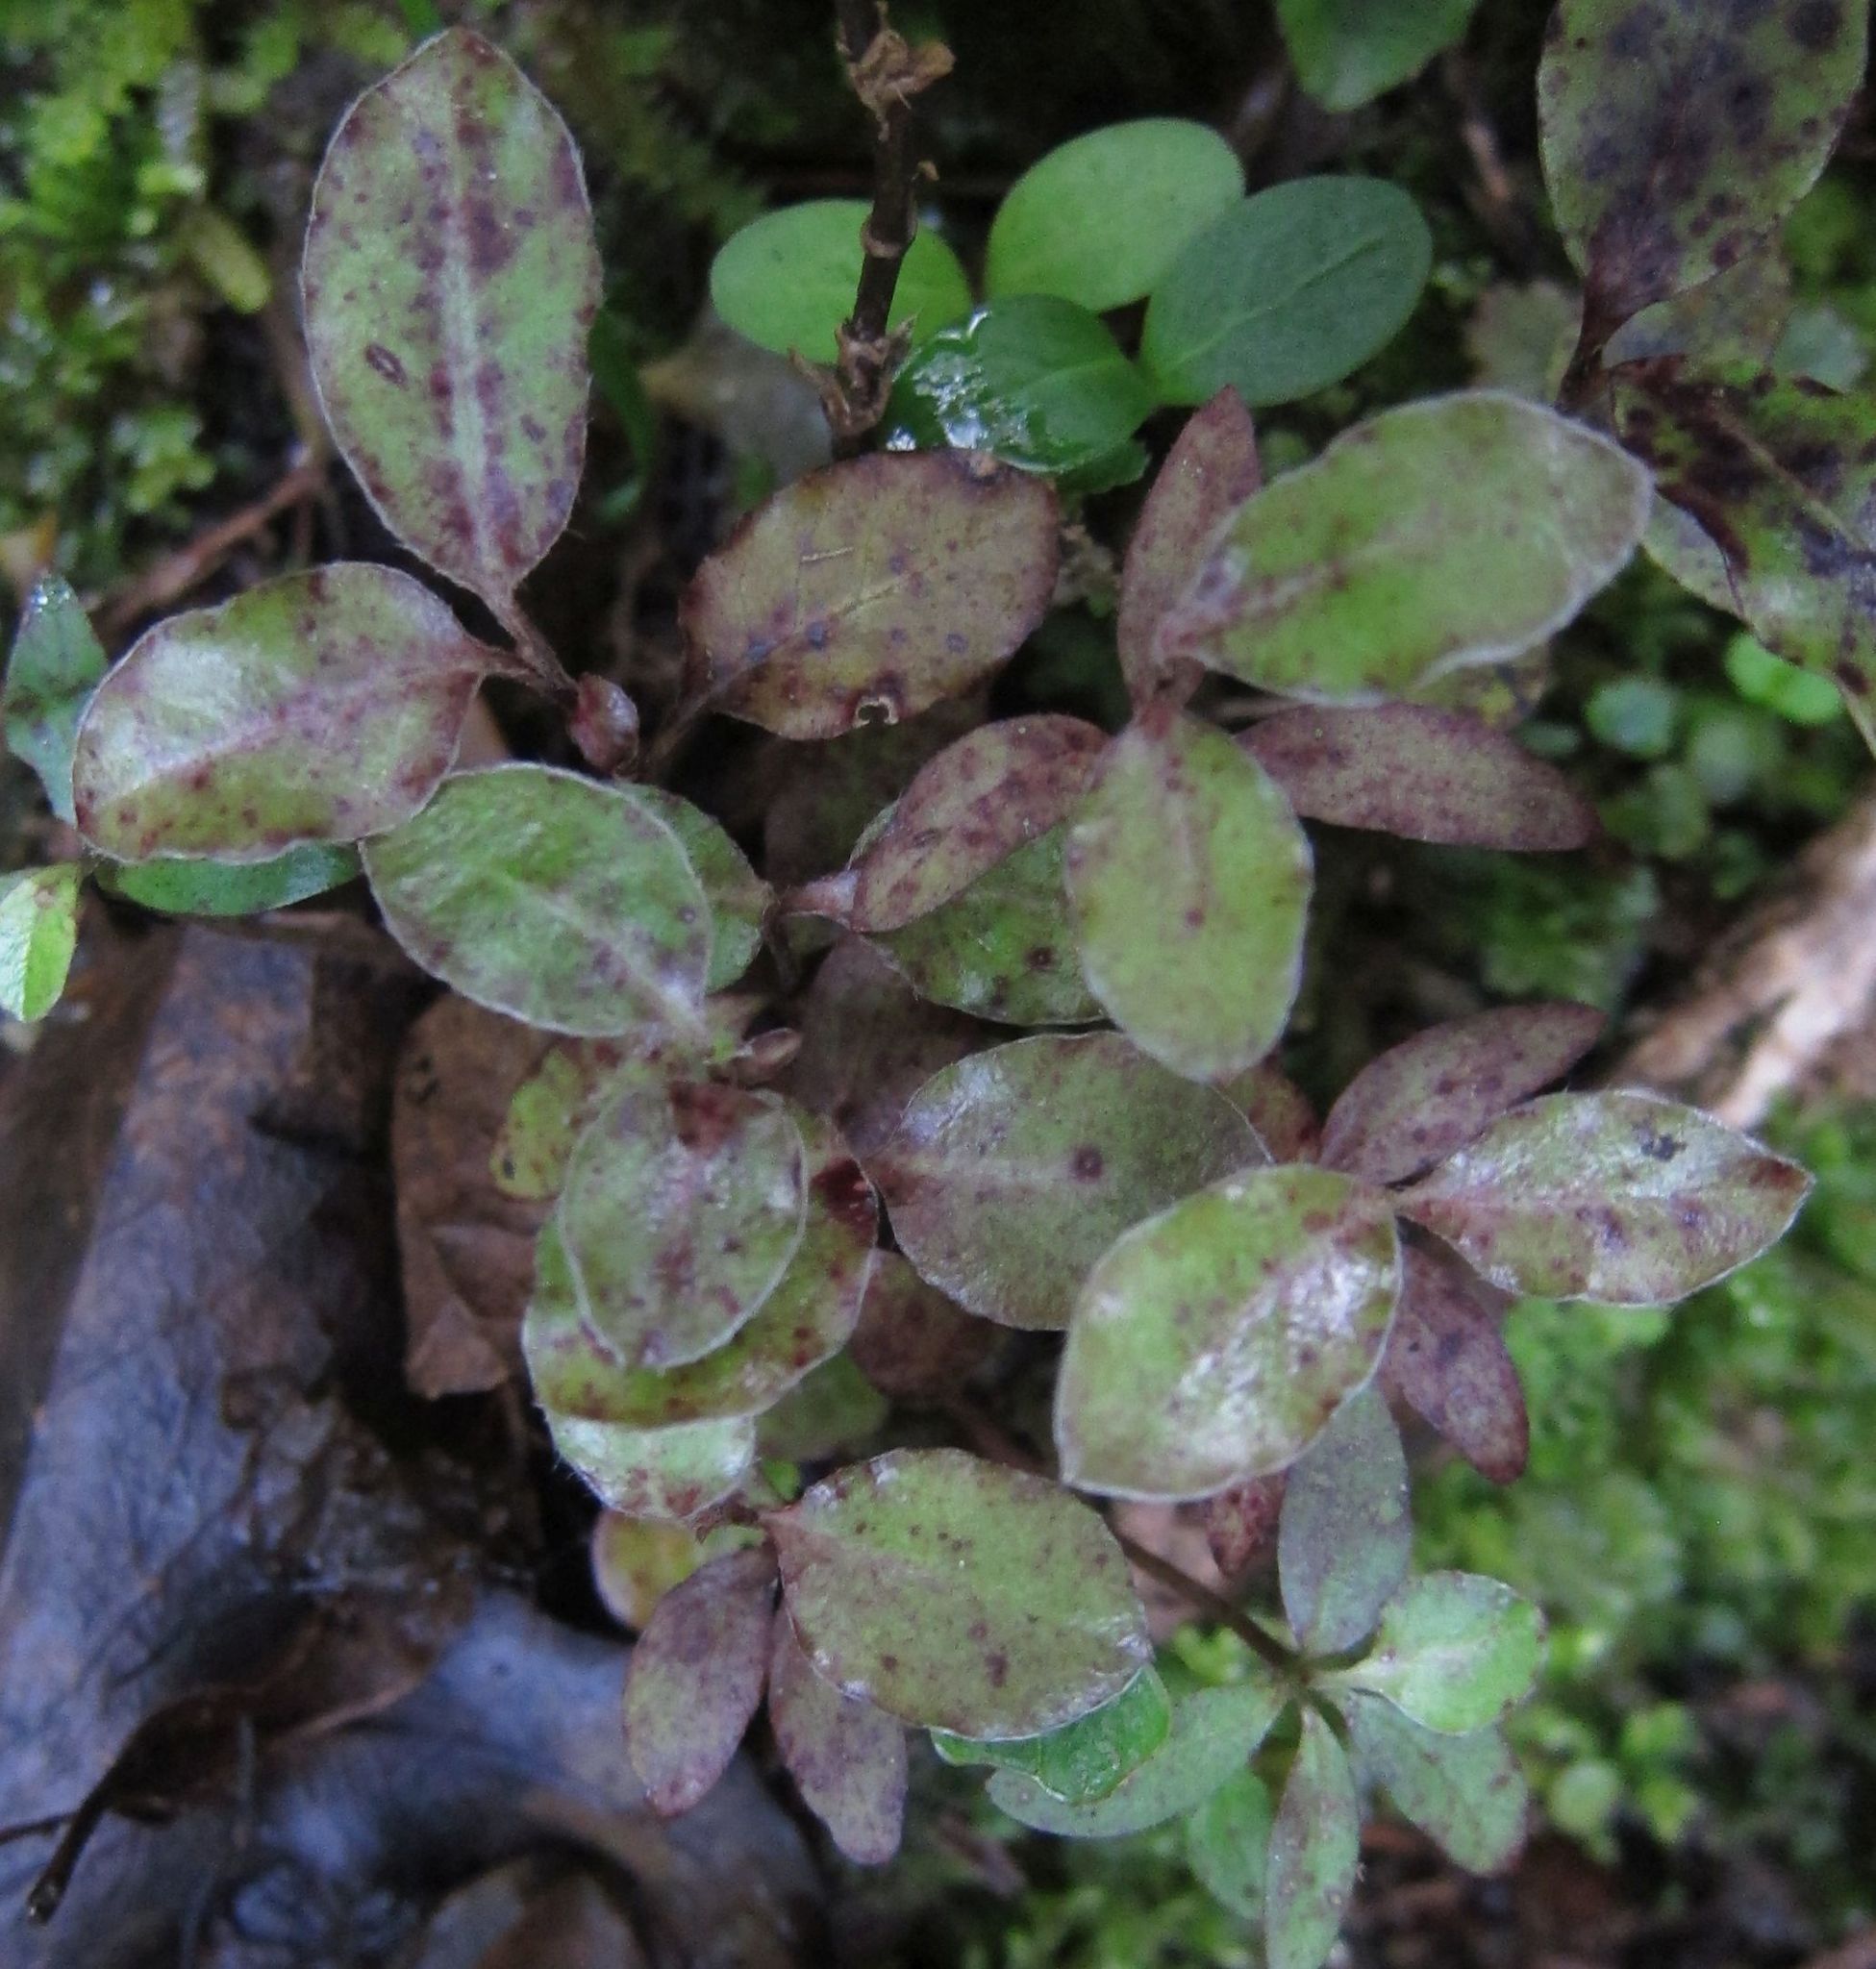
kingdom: Plantae
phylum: Tracheophyta
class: Magnoliopsida
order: Apiales
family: Pittosporaceae
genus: Pittosporum
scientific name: Pittosporum tenuifolium
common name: Kohuhu
